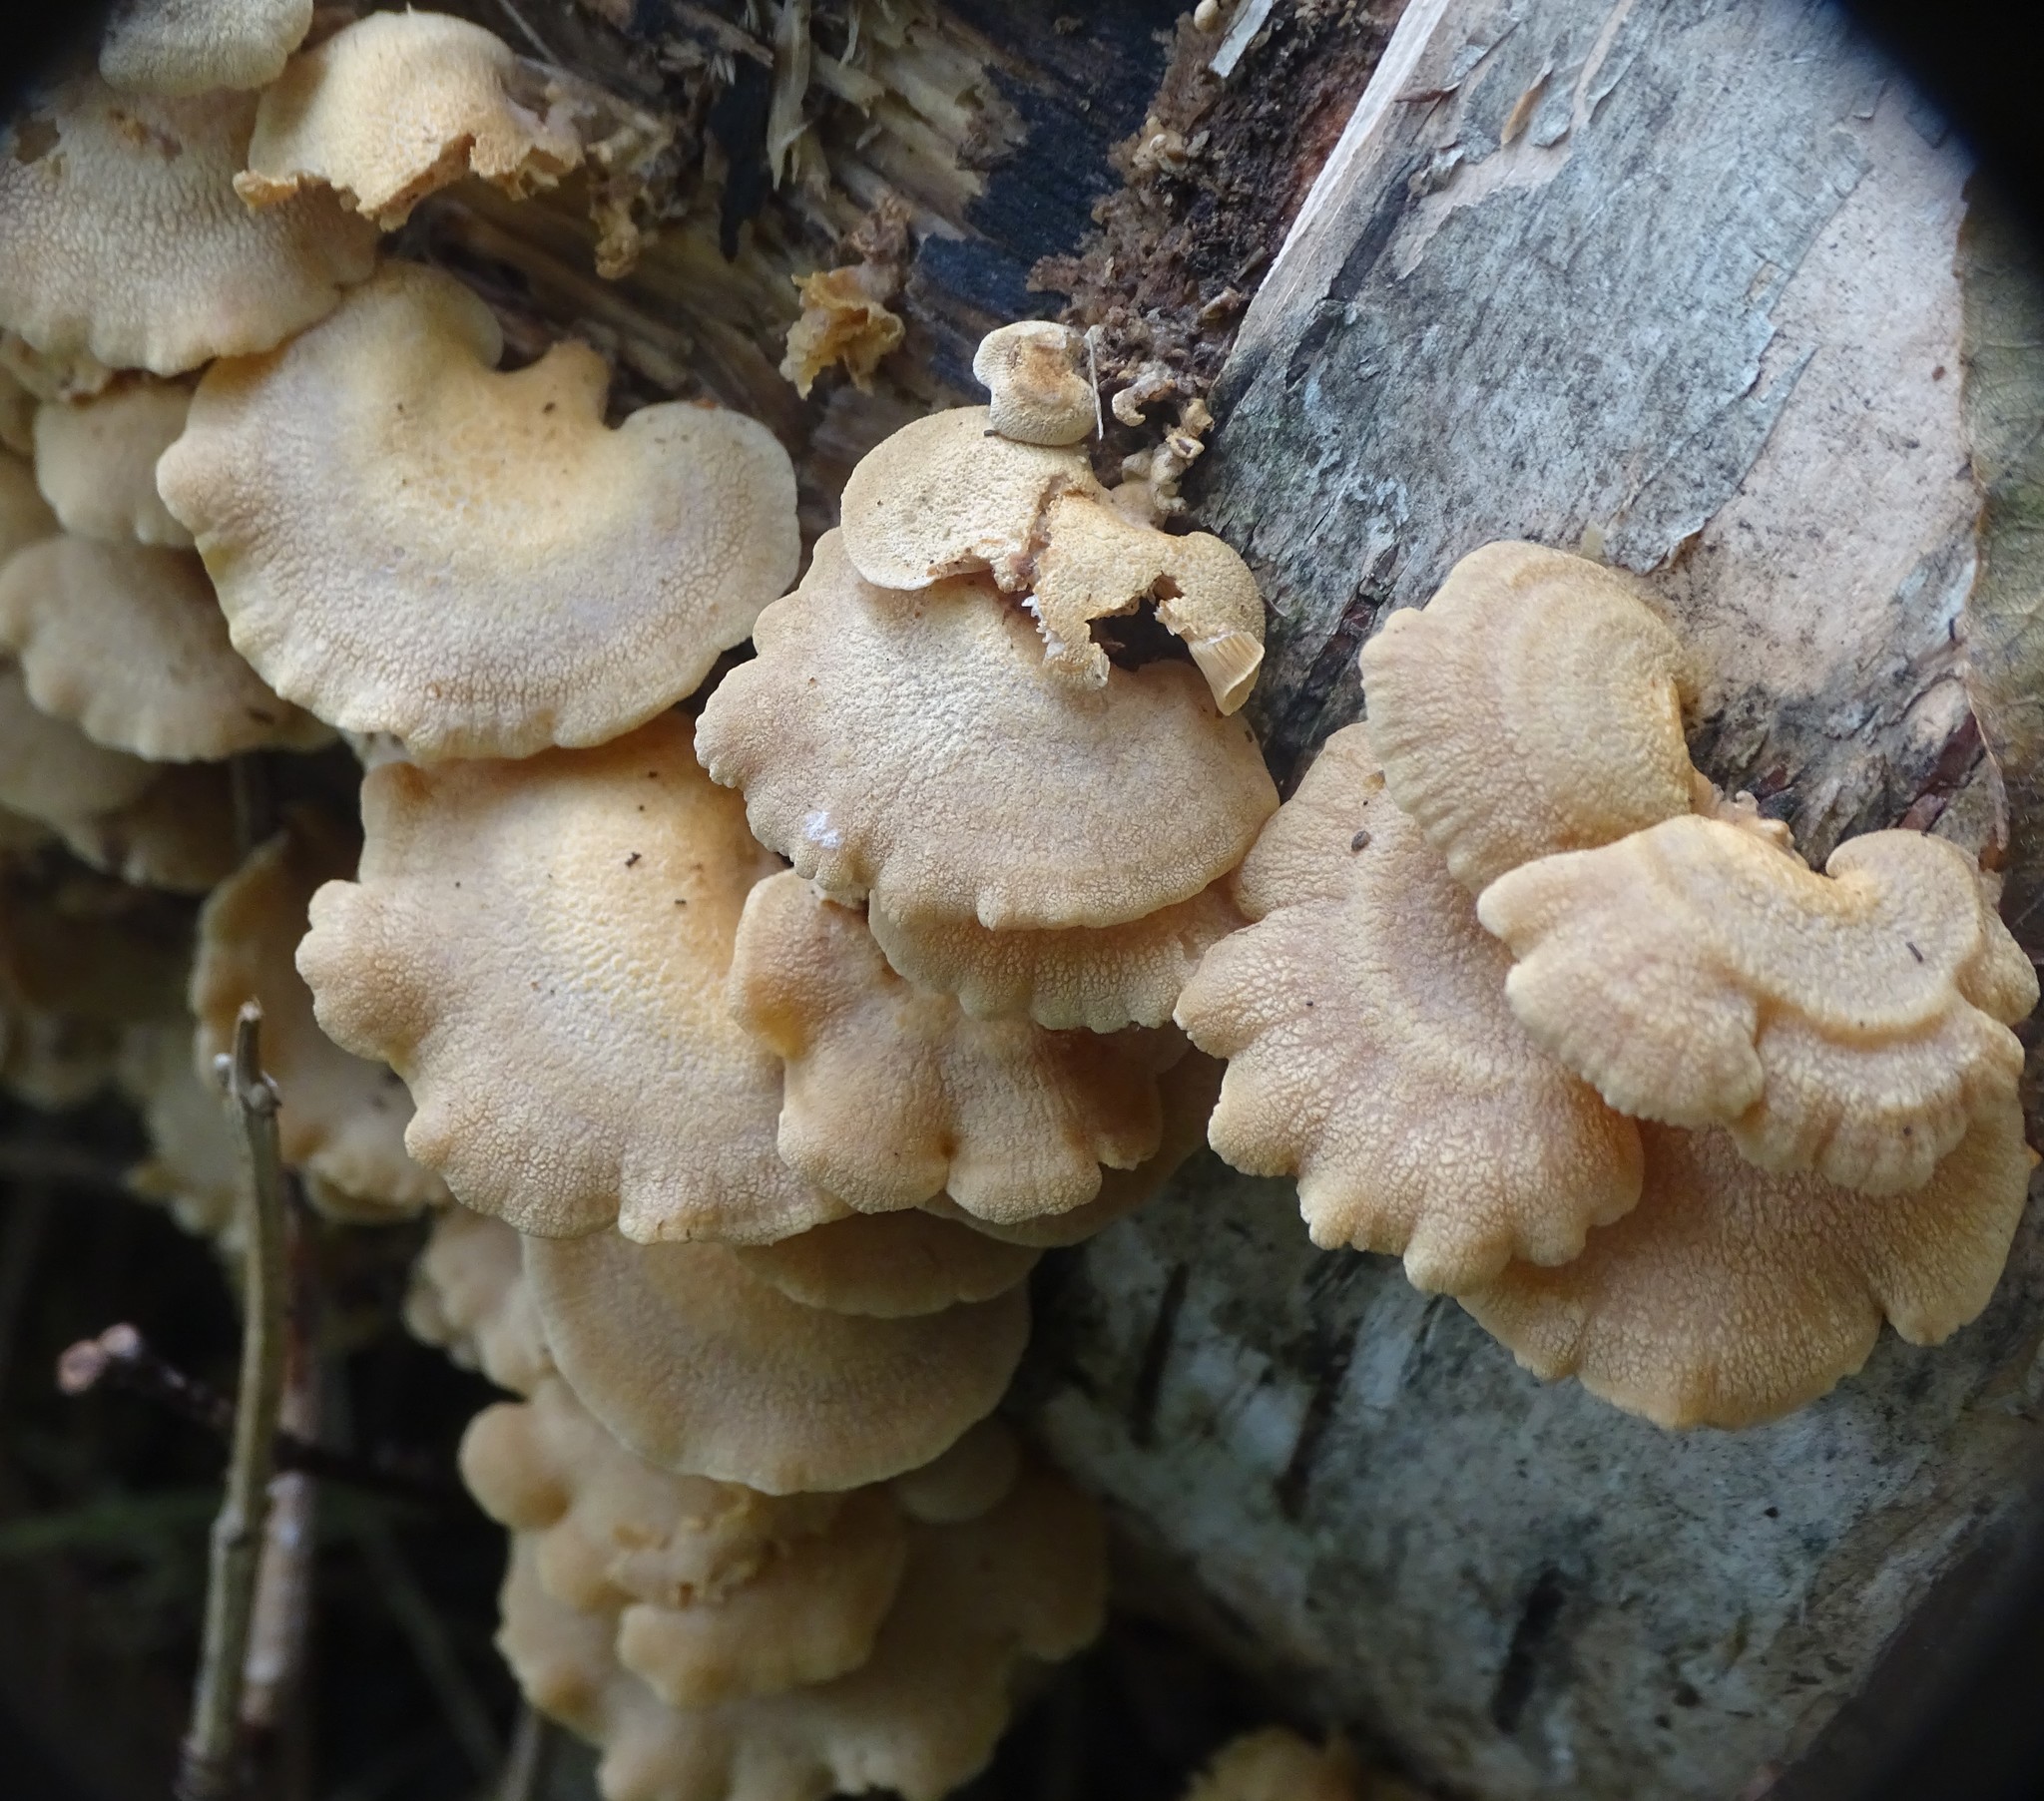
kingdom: Fungi
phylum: Basidiomycota
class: Agaricomycetes
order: Agaricales
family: Mycenaceae
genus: Panellus
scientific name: Panellus stipticus
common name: Bitter oysterling
